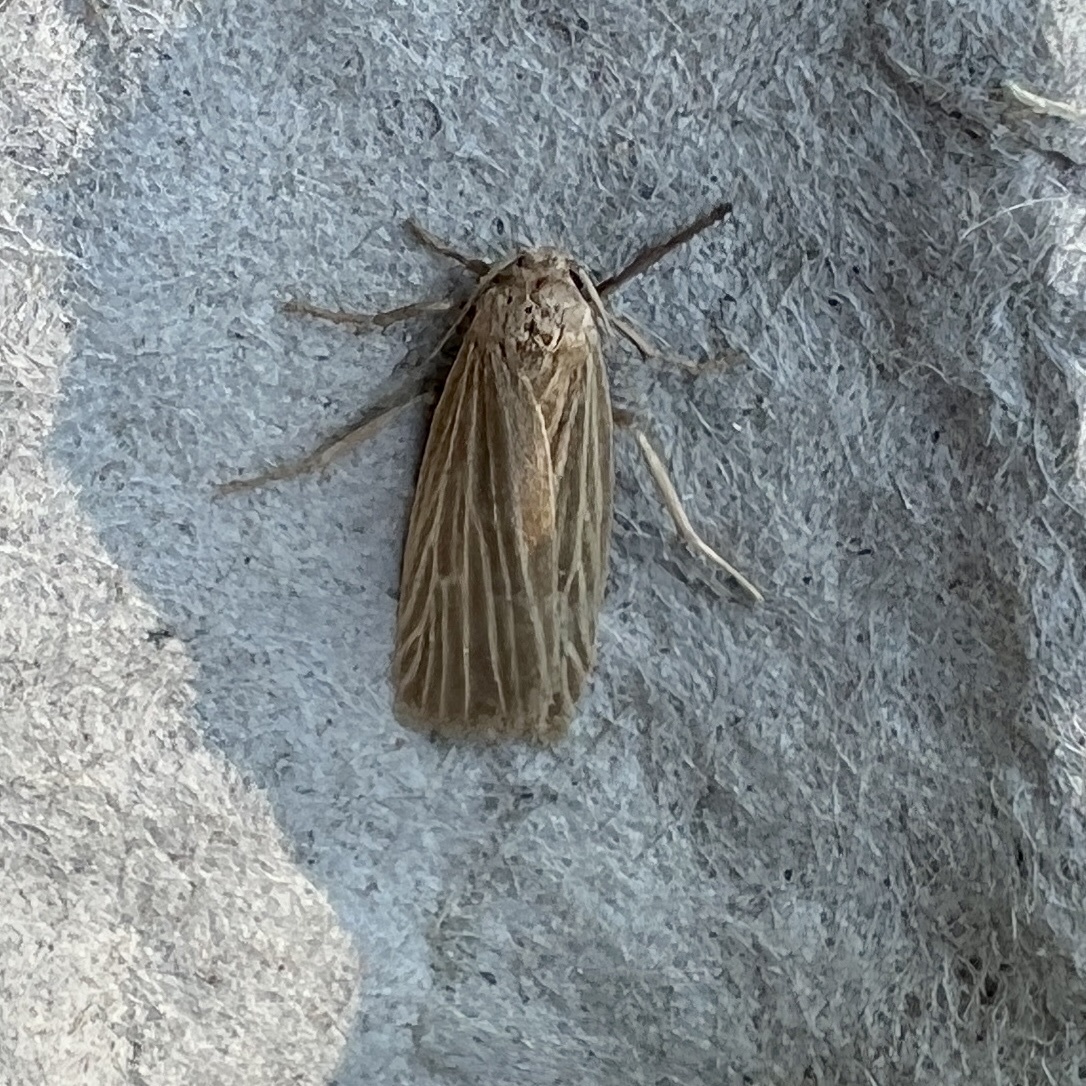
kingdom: Animalia
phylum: Arthropoda
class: Insecta
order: Lepidoptera
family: Erebidae
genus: Crambidia
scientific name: Crambidia pallida
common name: Pale lichen moth
